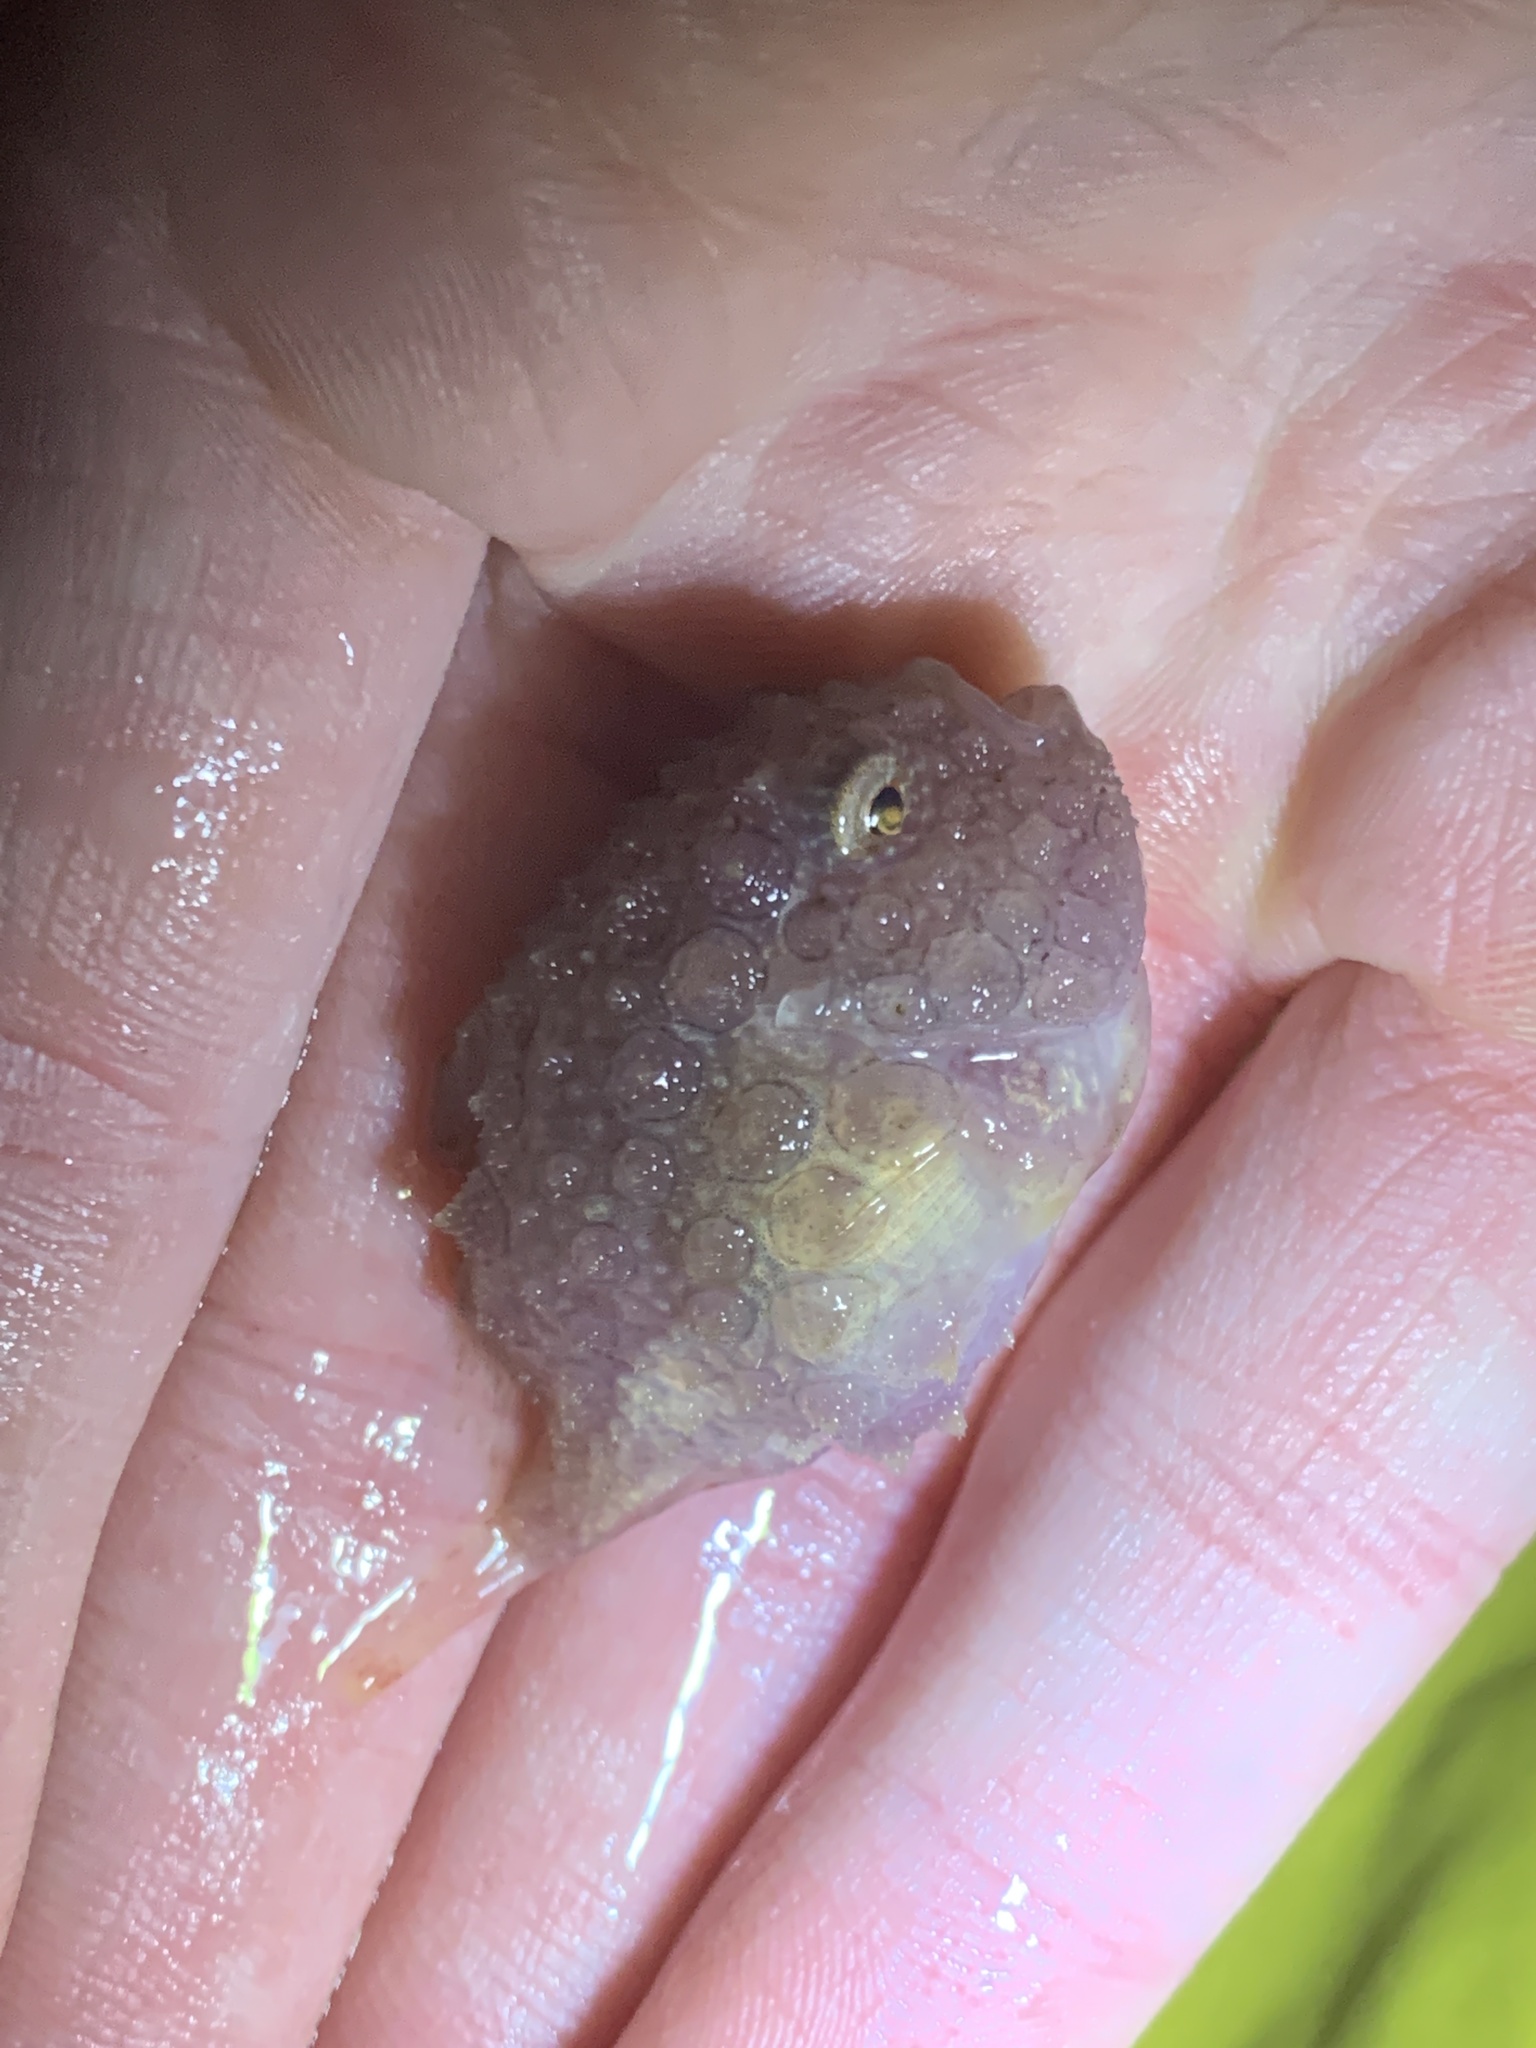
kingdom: Animalia
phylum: Chordata
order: Scorpaeniformes
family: Cyclopteridae
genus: Eumicrotremus
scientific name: Eumicrotremus orbis
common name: Pacific spiny lumpsucker
